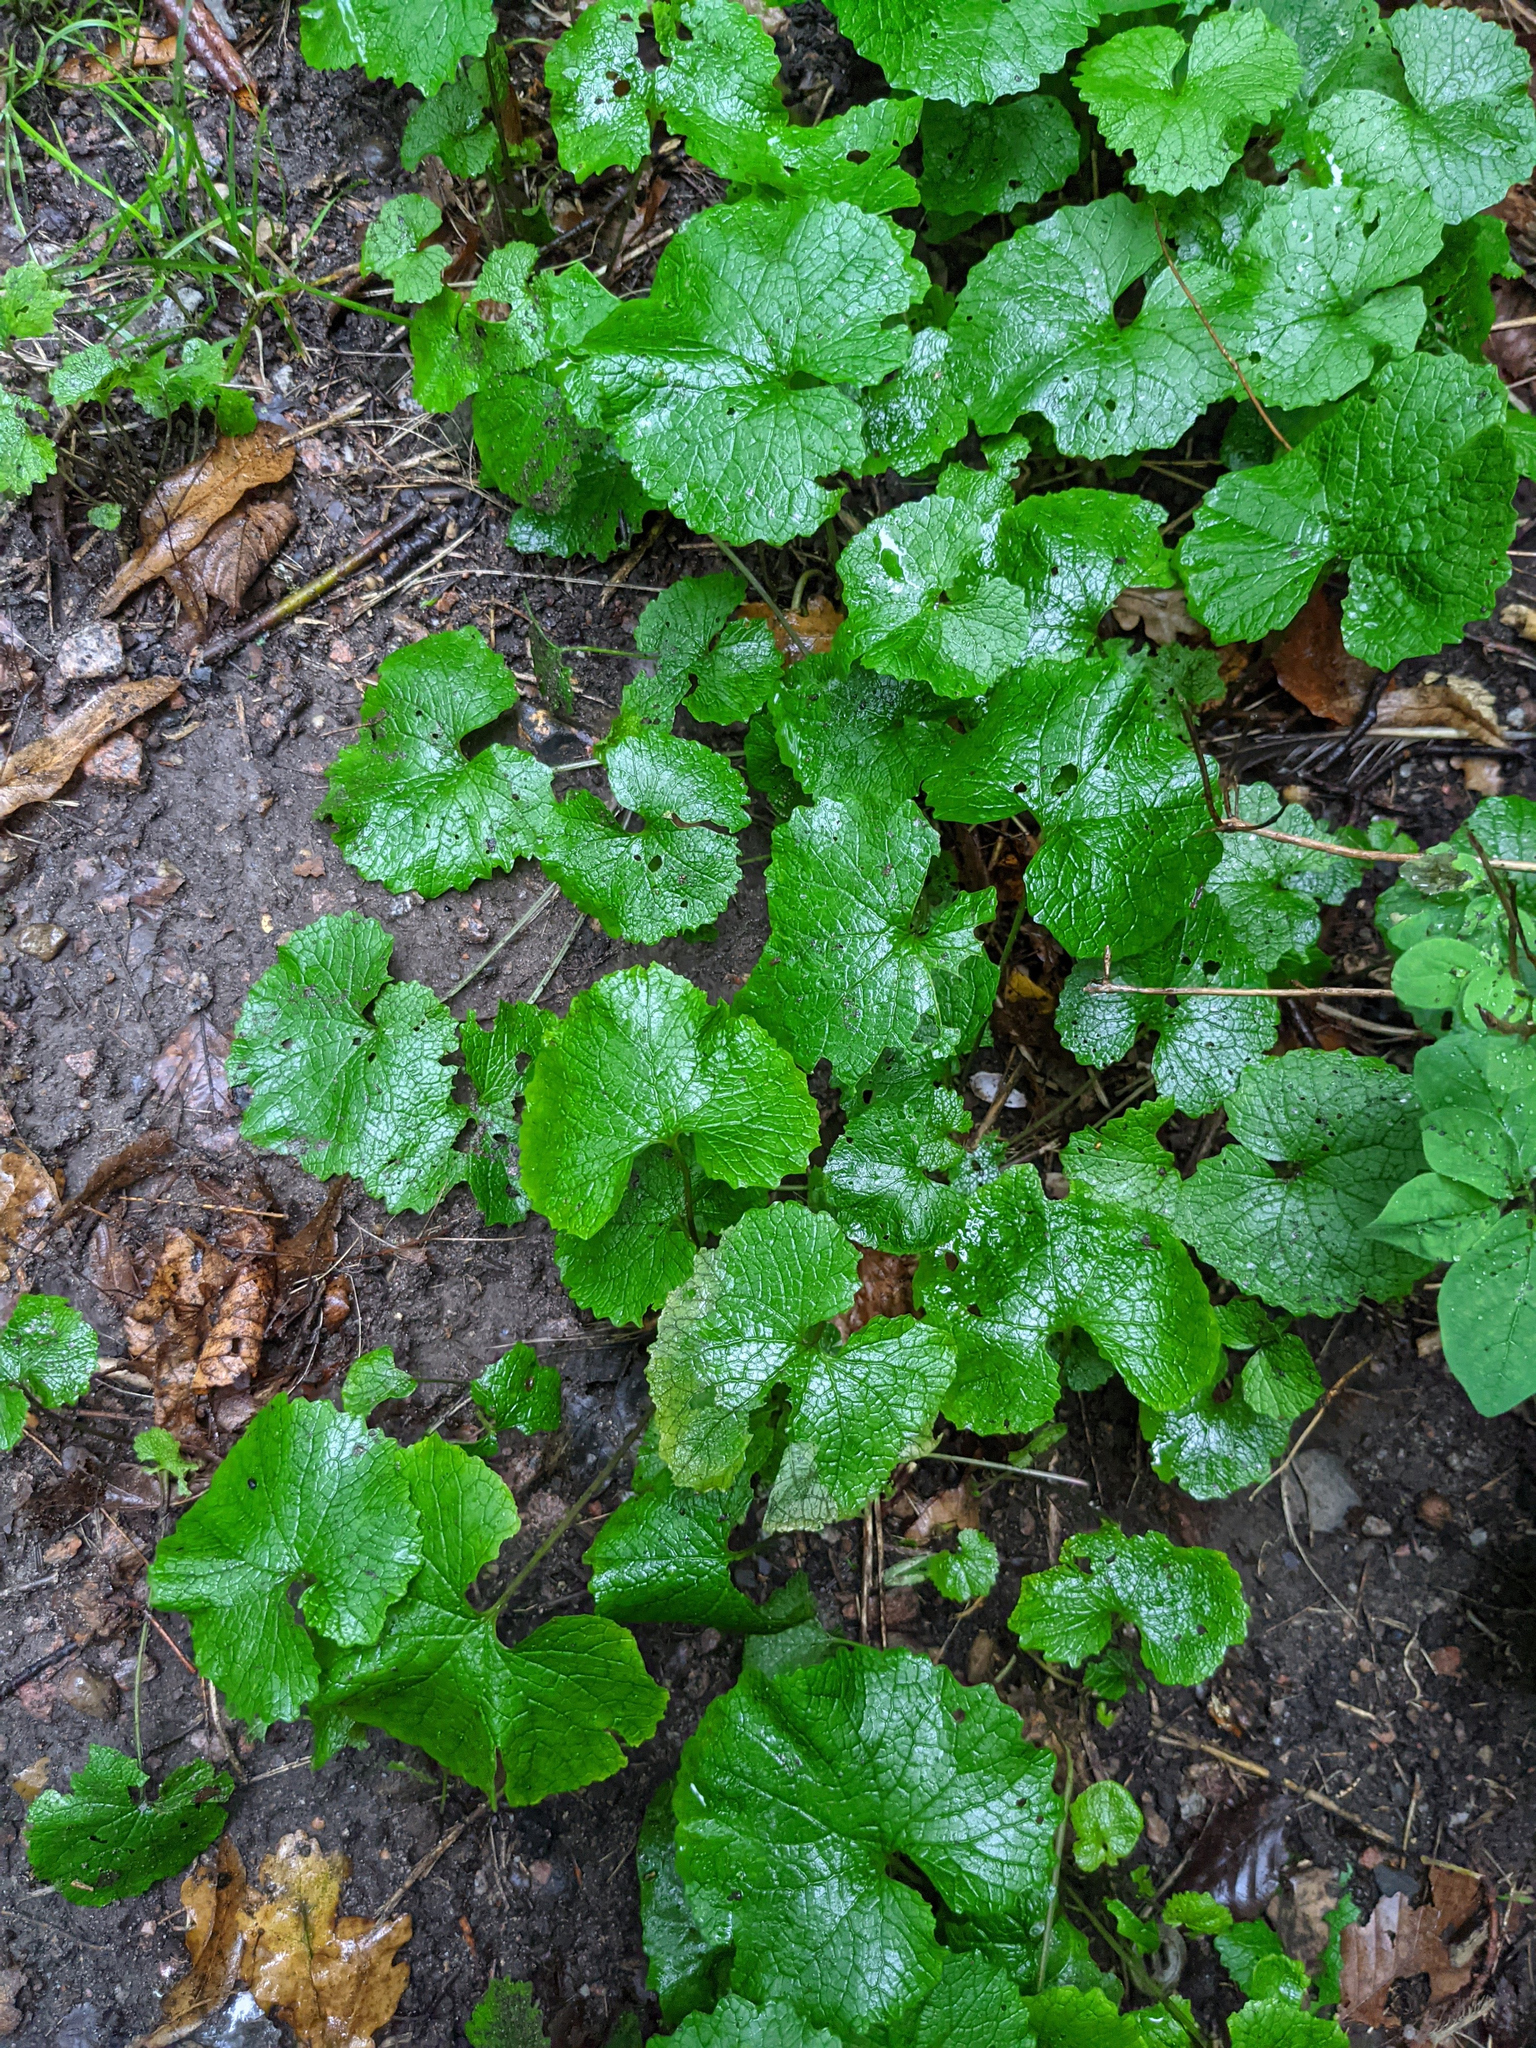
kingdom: Plantae
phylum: Tracheophyta
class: Magnoliopsida
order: Brassicales
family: Brassicaceae
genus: Alliaria
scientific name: Alliaria petiolata
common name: Garlic mustard
